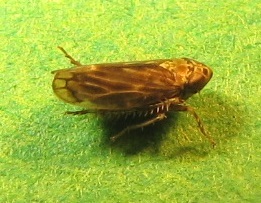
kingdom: Animalia
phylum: Arthropoda
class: Insecta
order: Hemiptera
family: Cicadellidae
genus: Stirellus
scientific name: Stirellus bicolor
